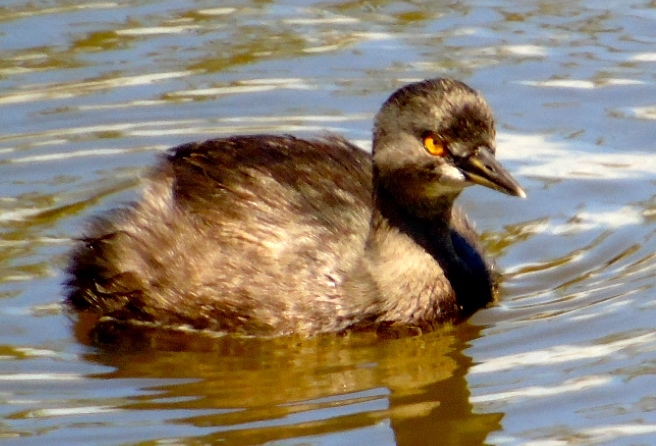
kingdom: Animalia
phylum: Chordata
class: Aves
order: Podicipediformes
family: Podicipedidae
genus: Tachybaptus
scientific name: Tachybaptus dominicus
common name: Least grebe
